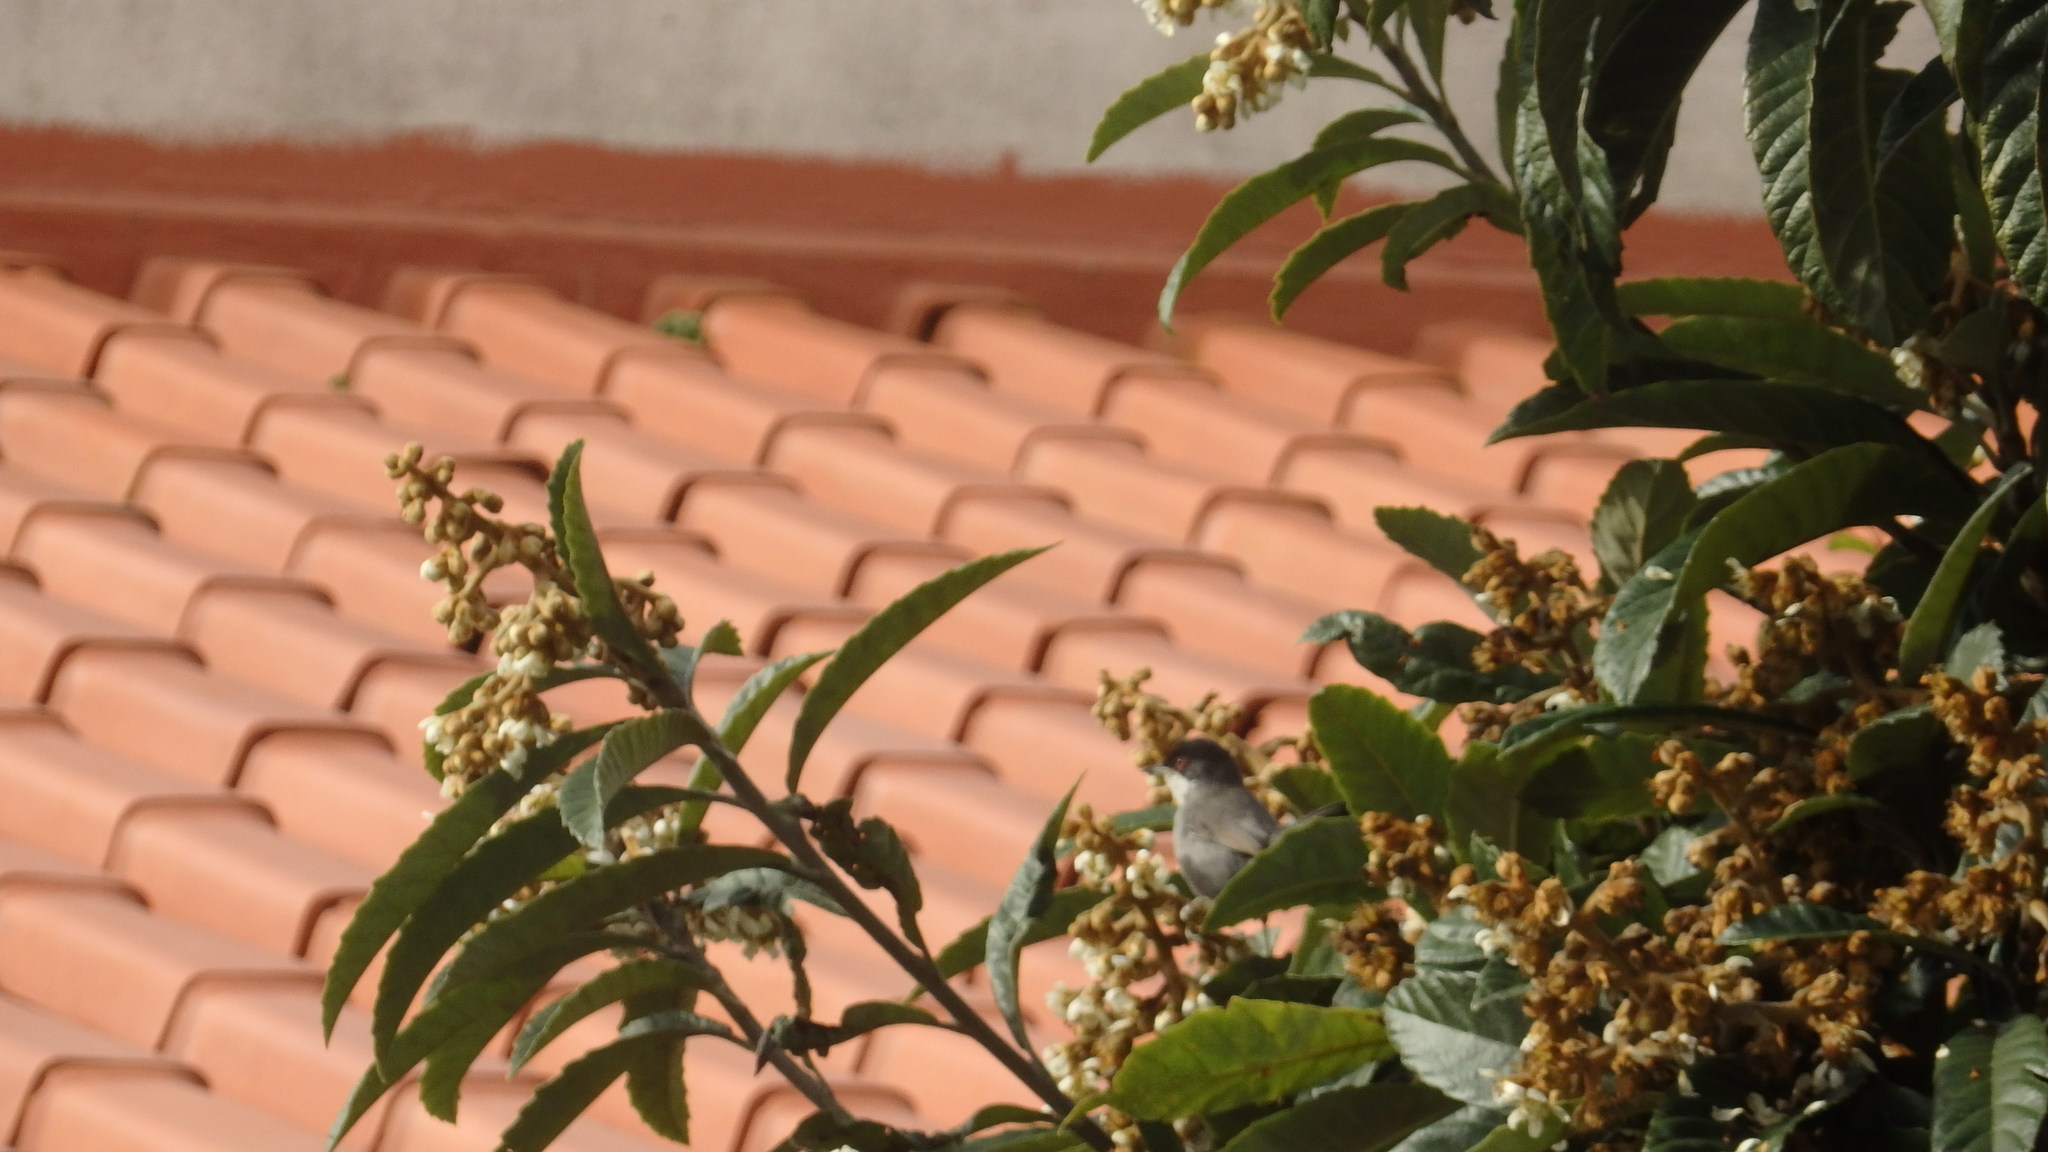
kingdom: Animalia
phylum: Chordata
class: Aves
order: Passeriformes
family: Sylviidae
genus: Curruca
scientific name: Curruca melanocephala
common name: Sardinian warbler
